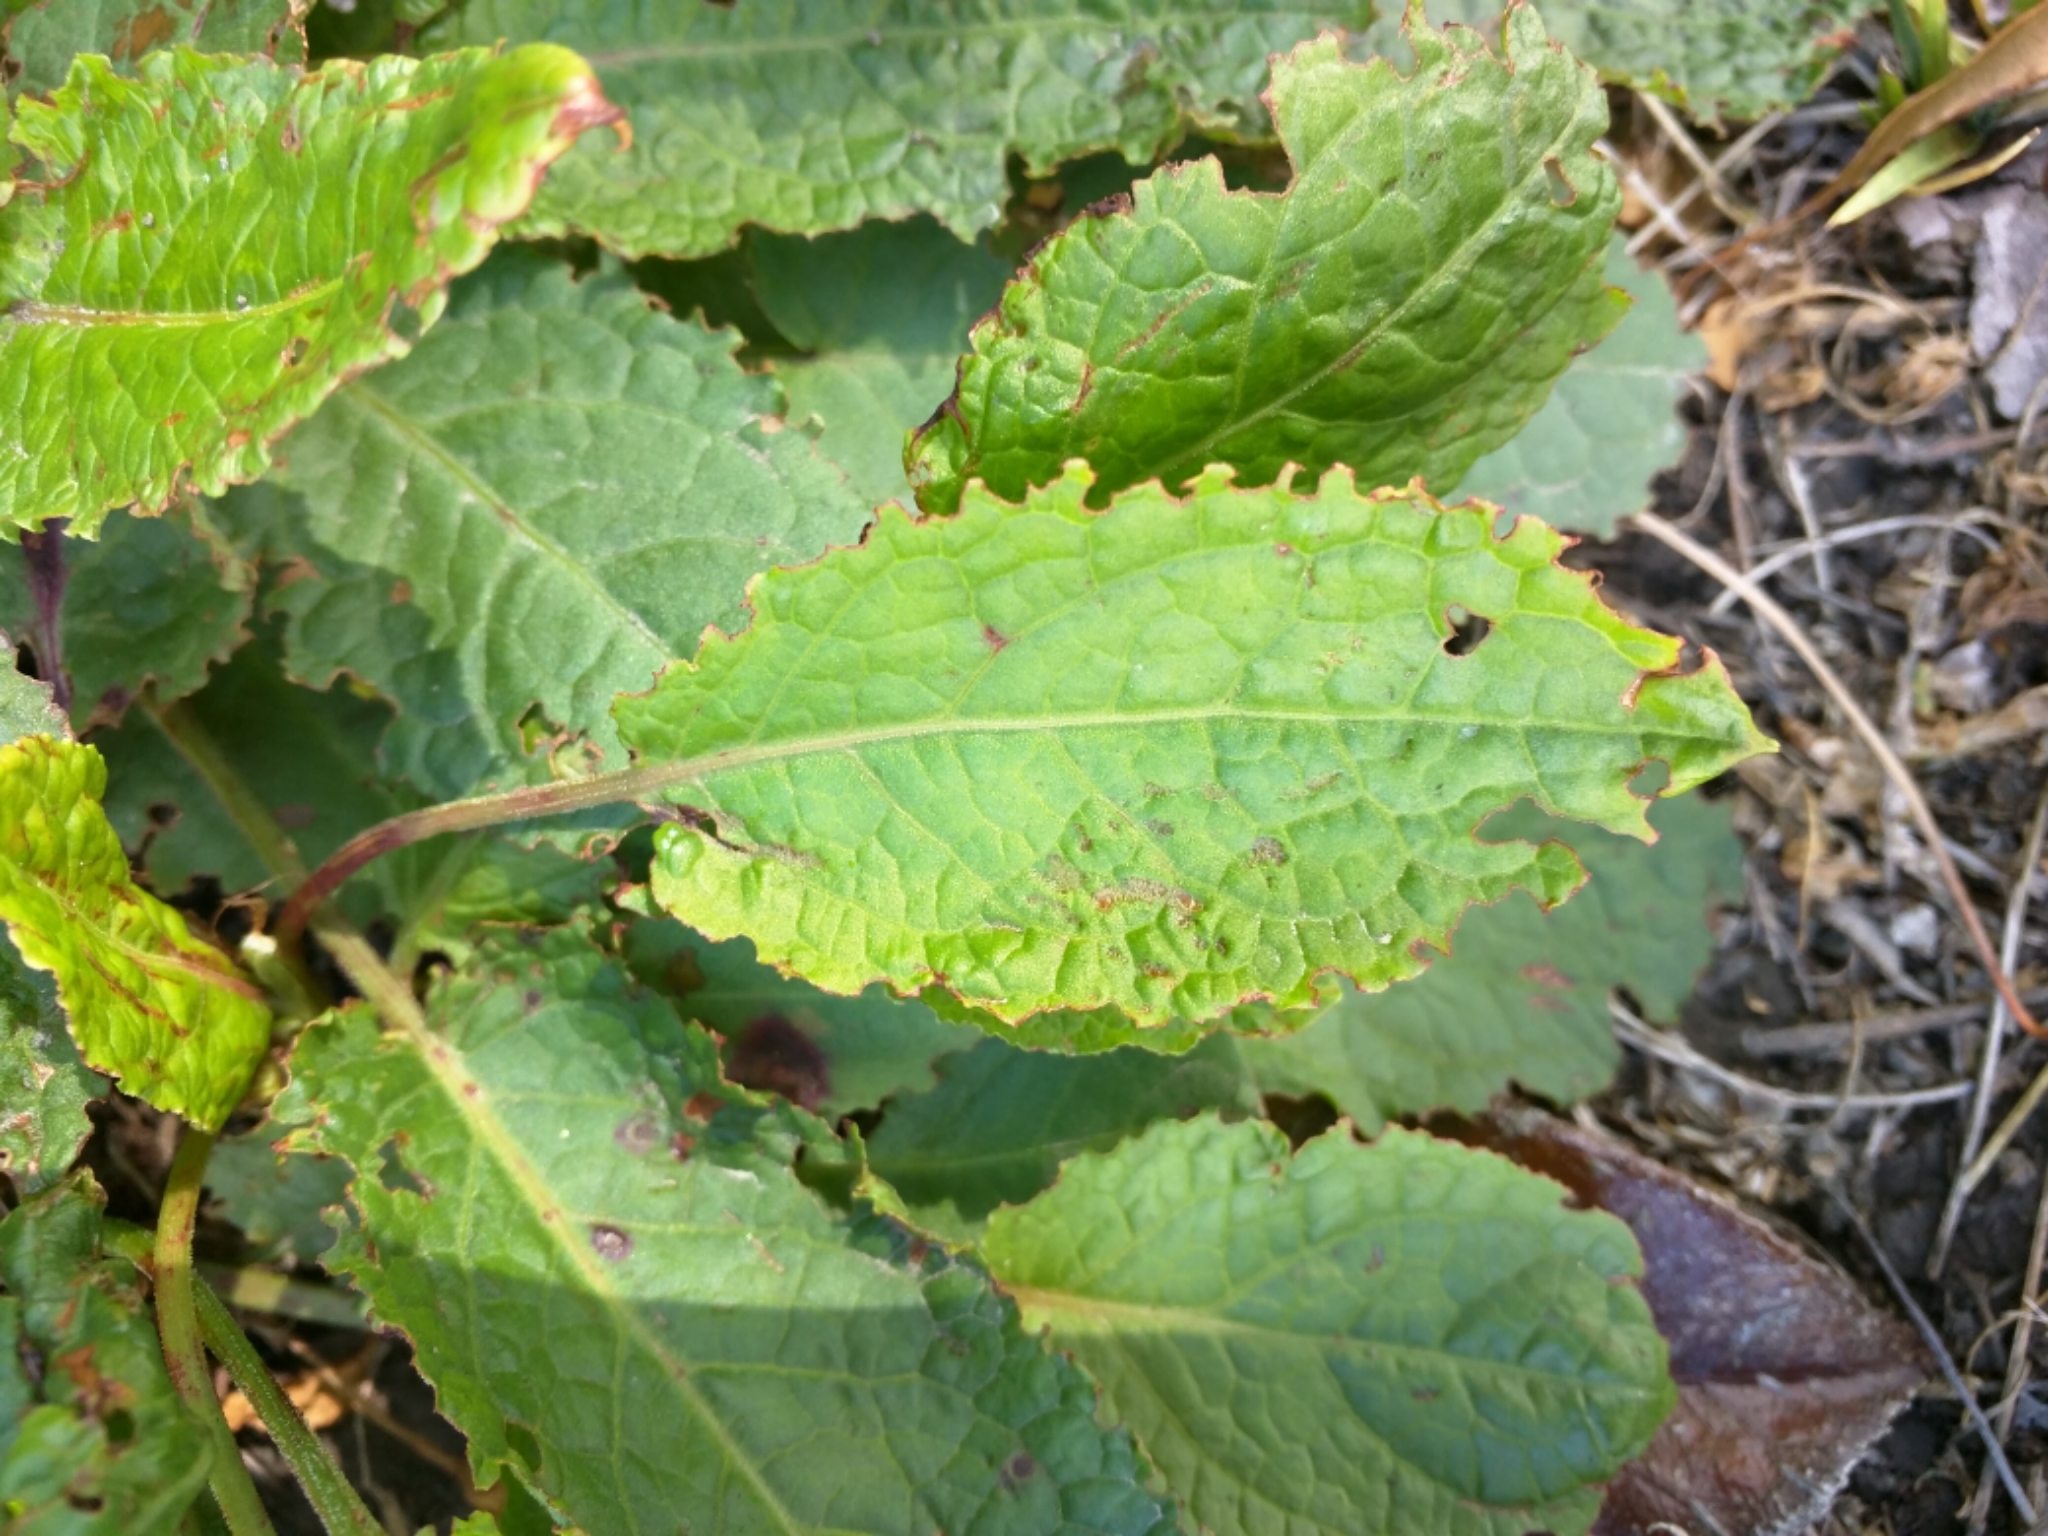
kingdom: Plantae
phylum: Tracheophyta
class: Magnoliopsida
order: Caryophyllales
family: Polygonaceae
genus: Rumex
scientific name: Rumex obtusifolius
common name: Bitter dock
